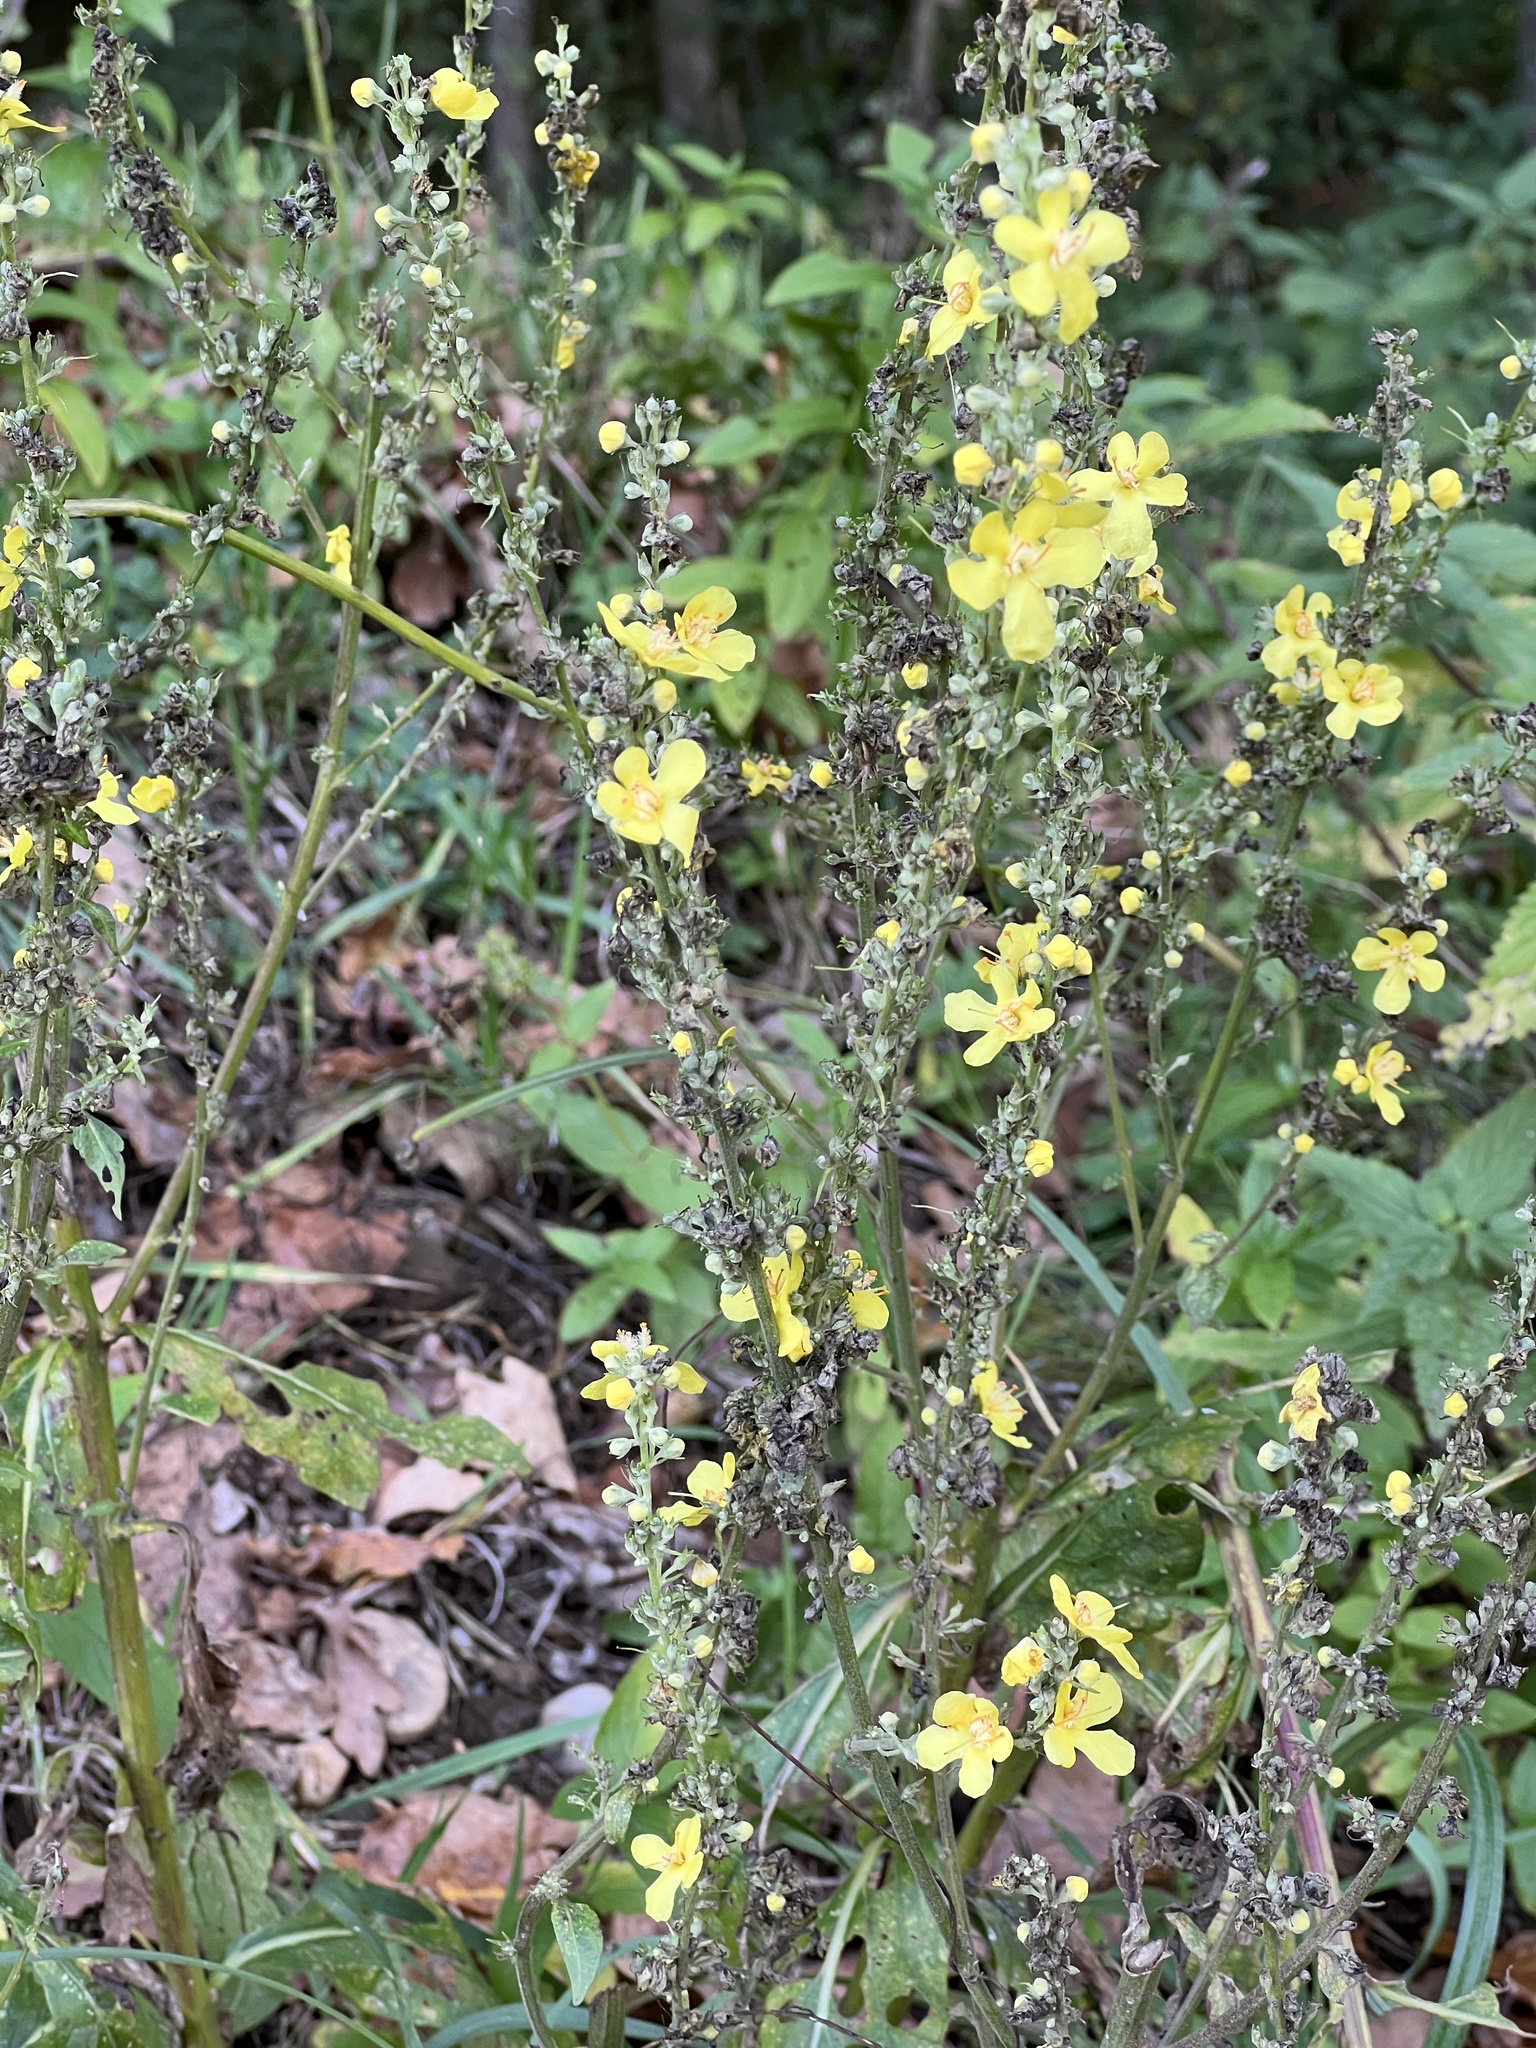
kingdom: Plantae
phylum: Tracheophyta
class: Magnoliopsida
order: Lamiales
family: Scrophulariaceae
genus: Verbascum
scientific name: Verbascum lychnitis
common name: White mullein
